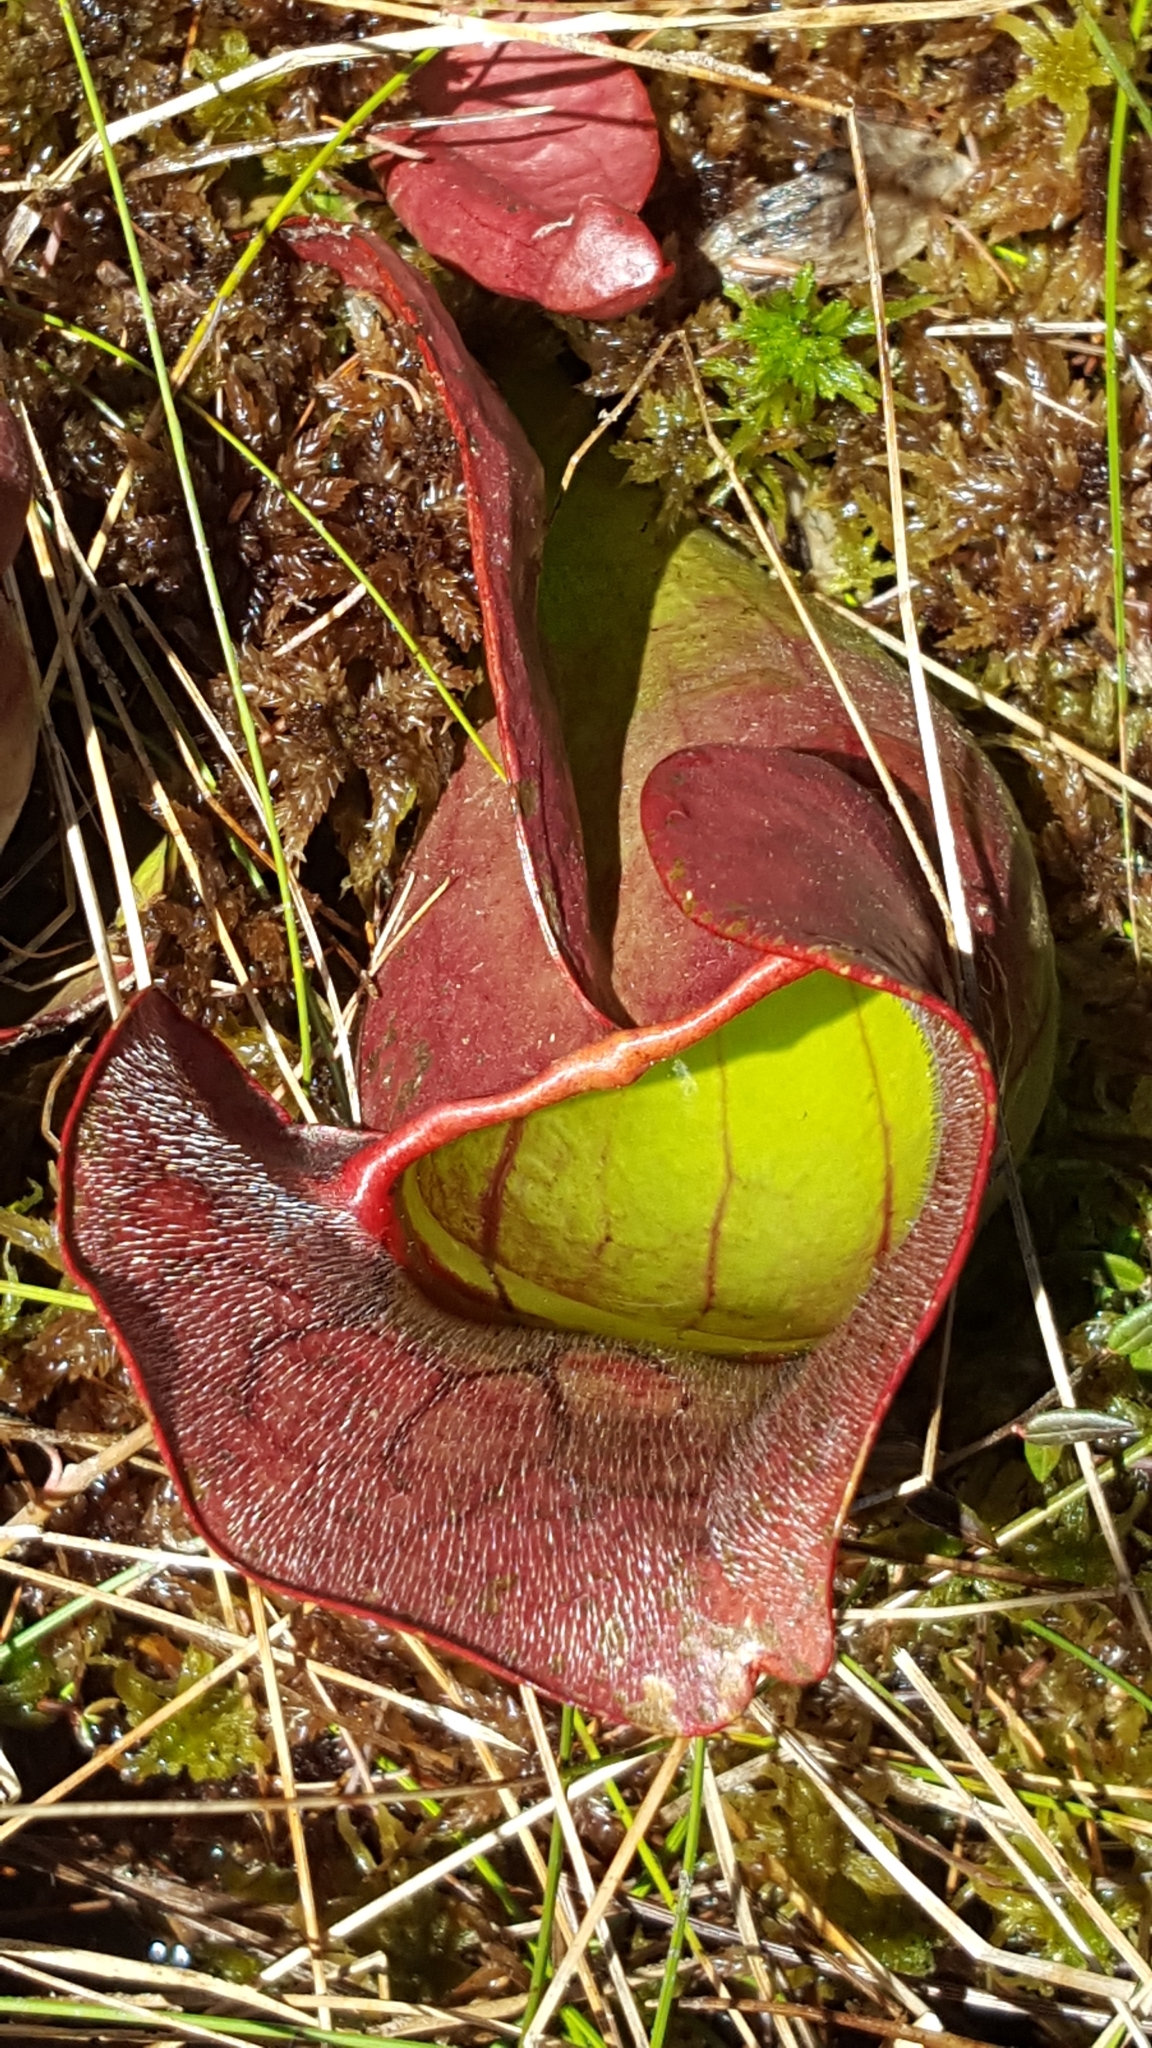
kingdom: Plantae
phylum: Tracheophyta
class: Magnoliopsida
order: Ericales
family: Sarraceniaceae
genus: Sarracenia
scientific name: Sarracenia purpurea
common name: Pitcherplant
